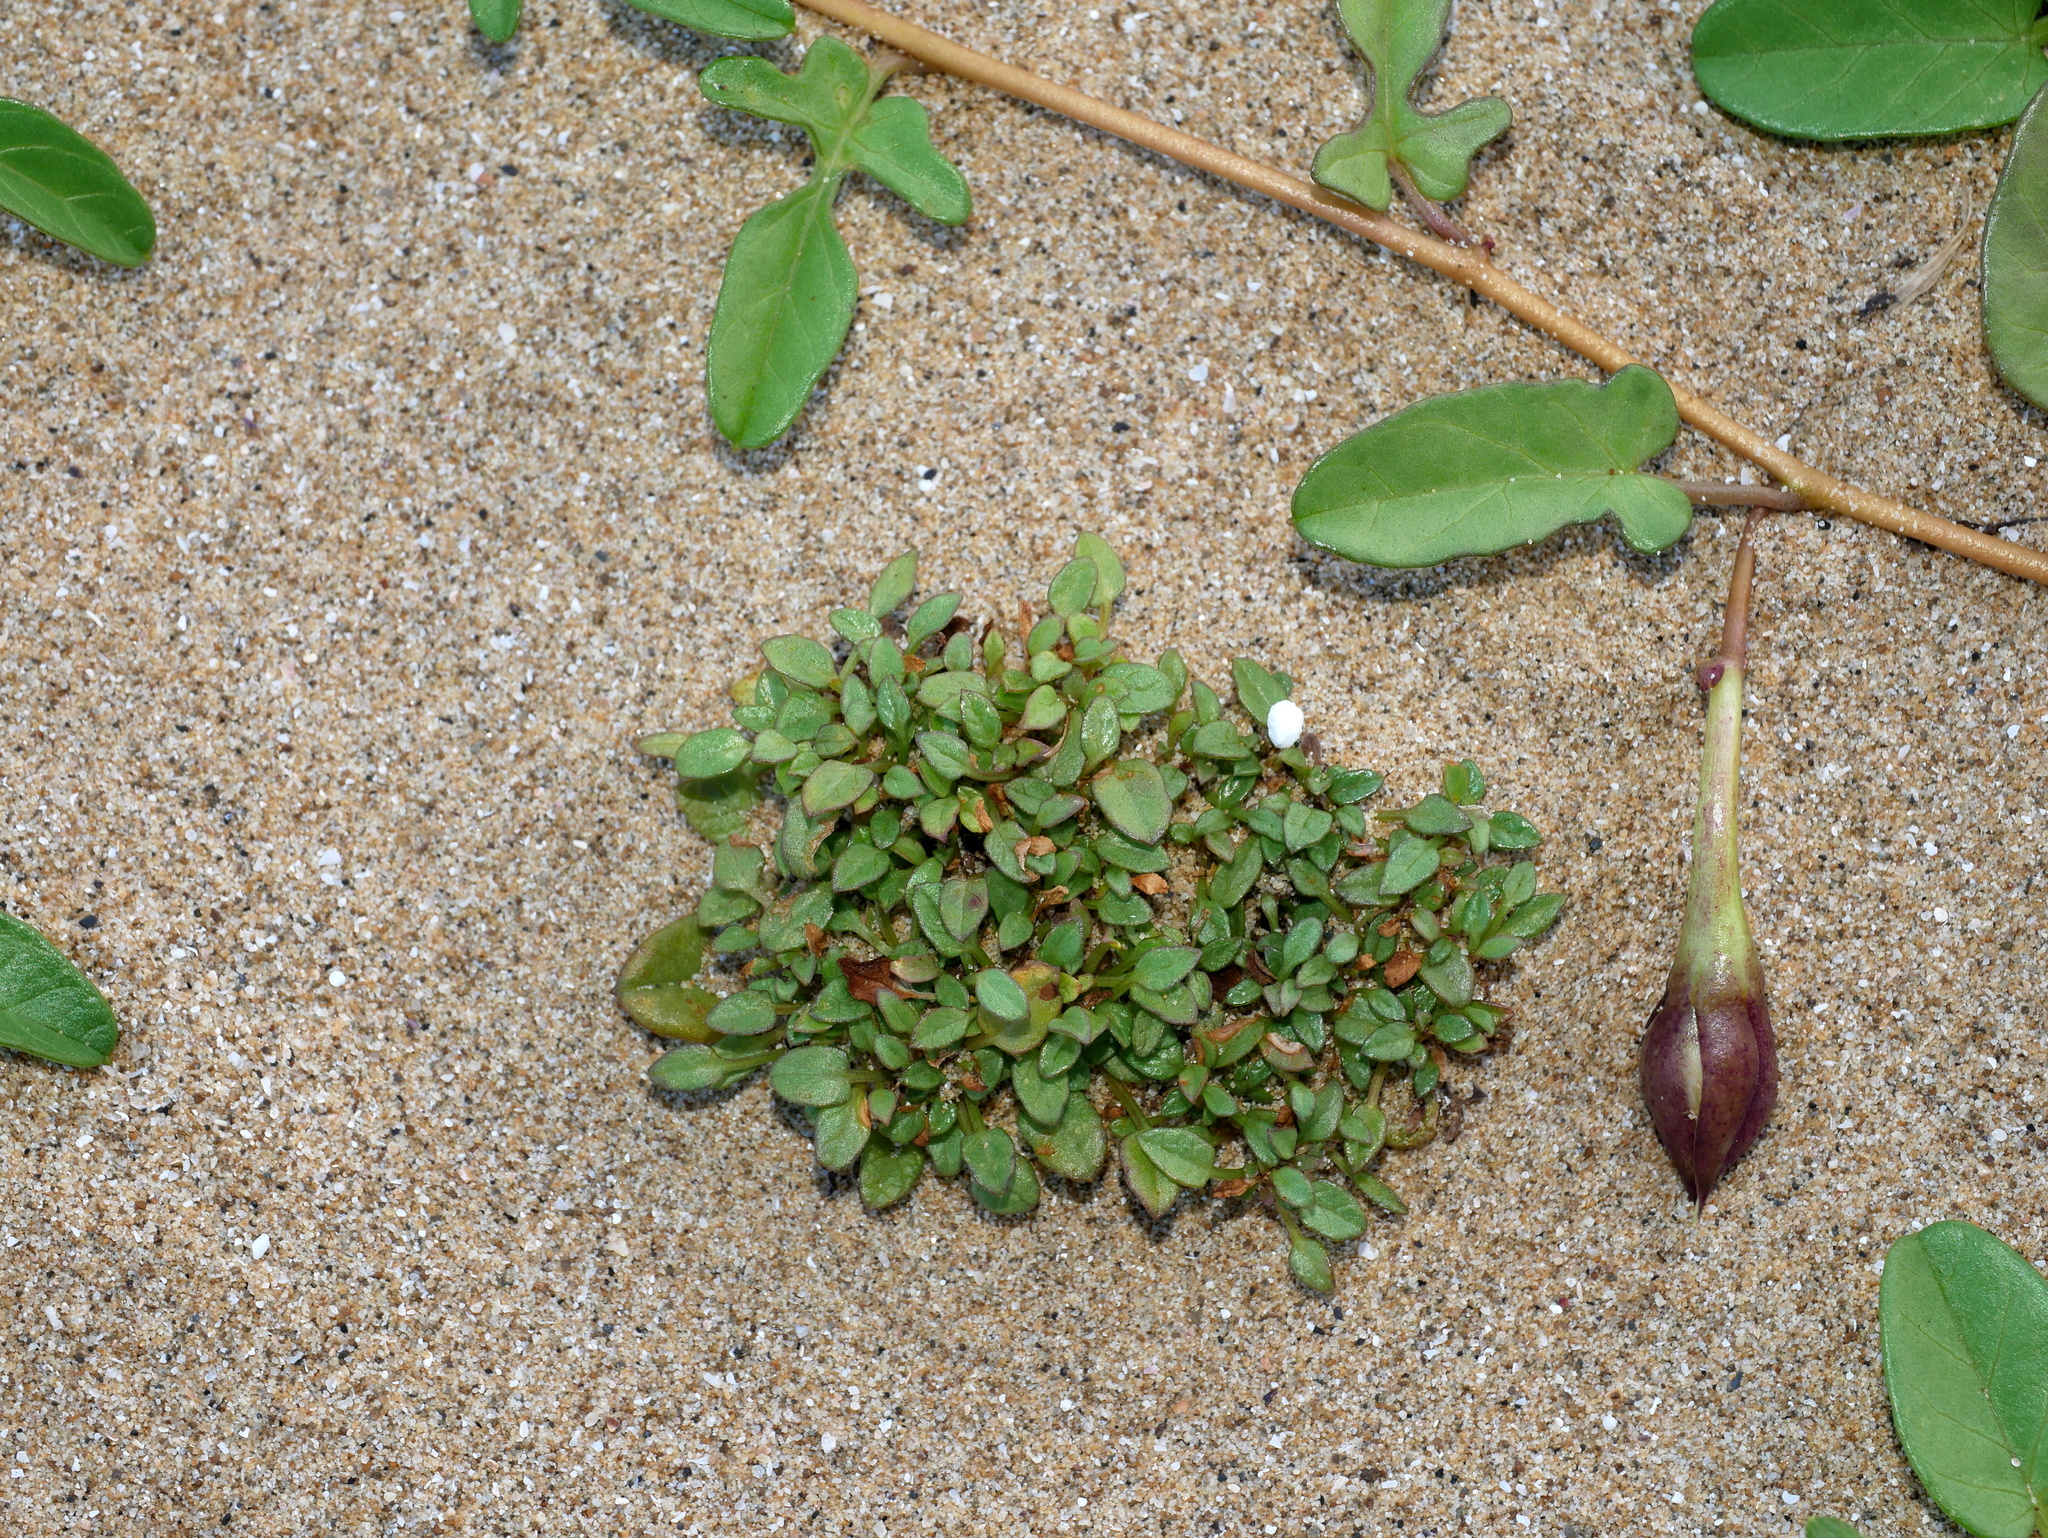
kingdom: Plantae
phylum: Tracheophyta
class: Magnoliopsida
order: Solanales
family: Convolvulaceae
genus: Ipomoea
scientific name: Ipomoea imperati
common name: Fiddle-leaf morning-glory
